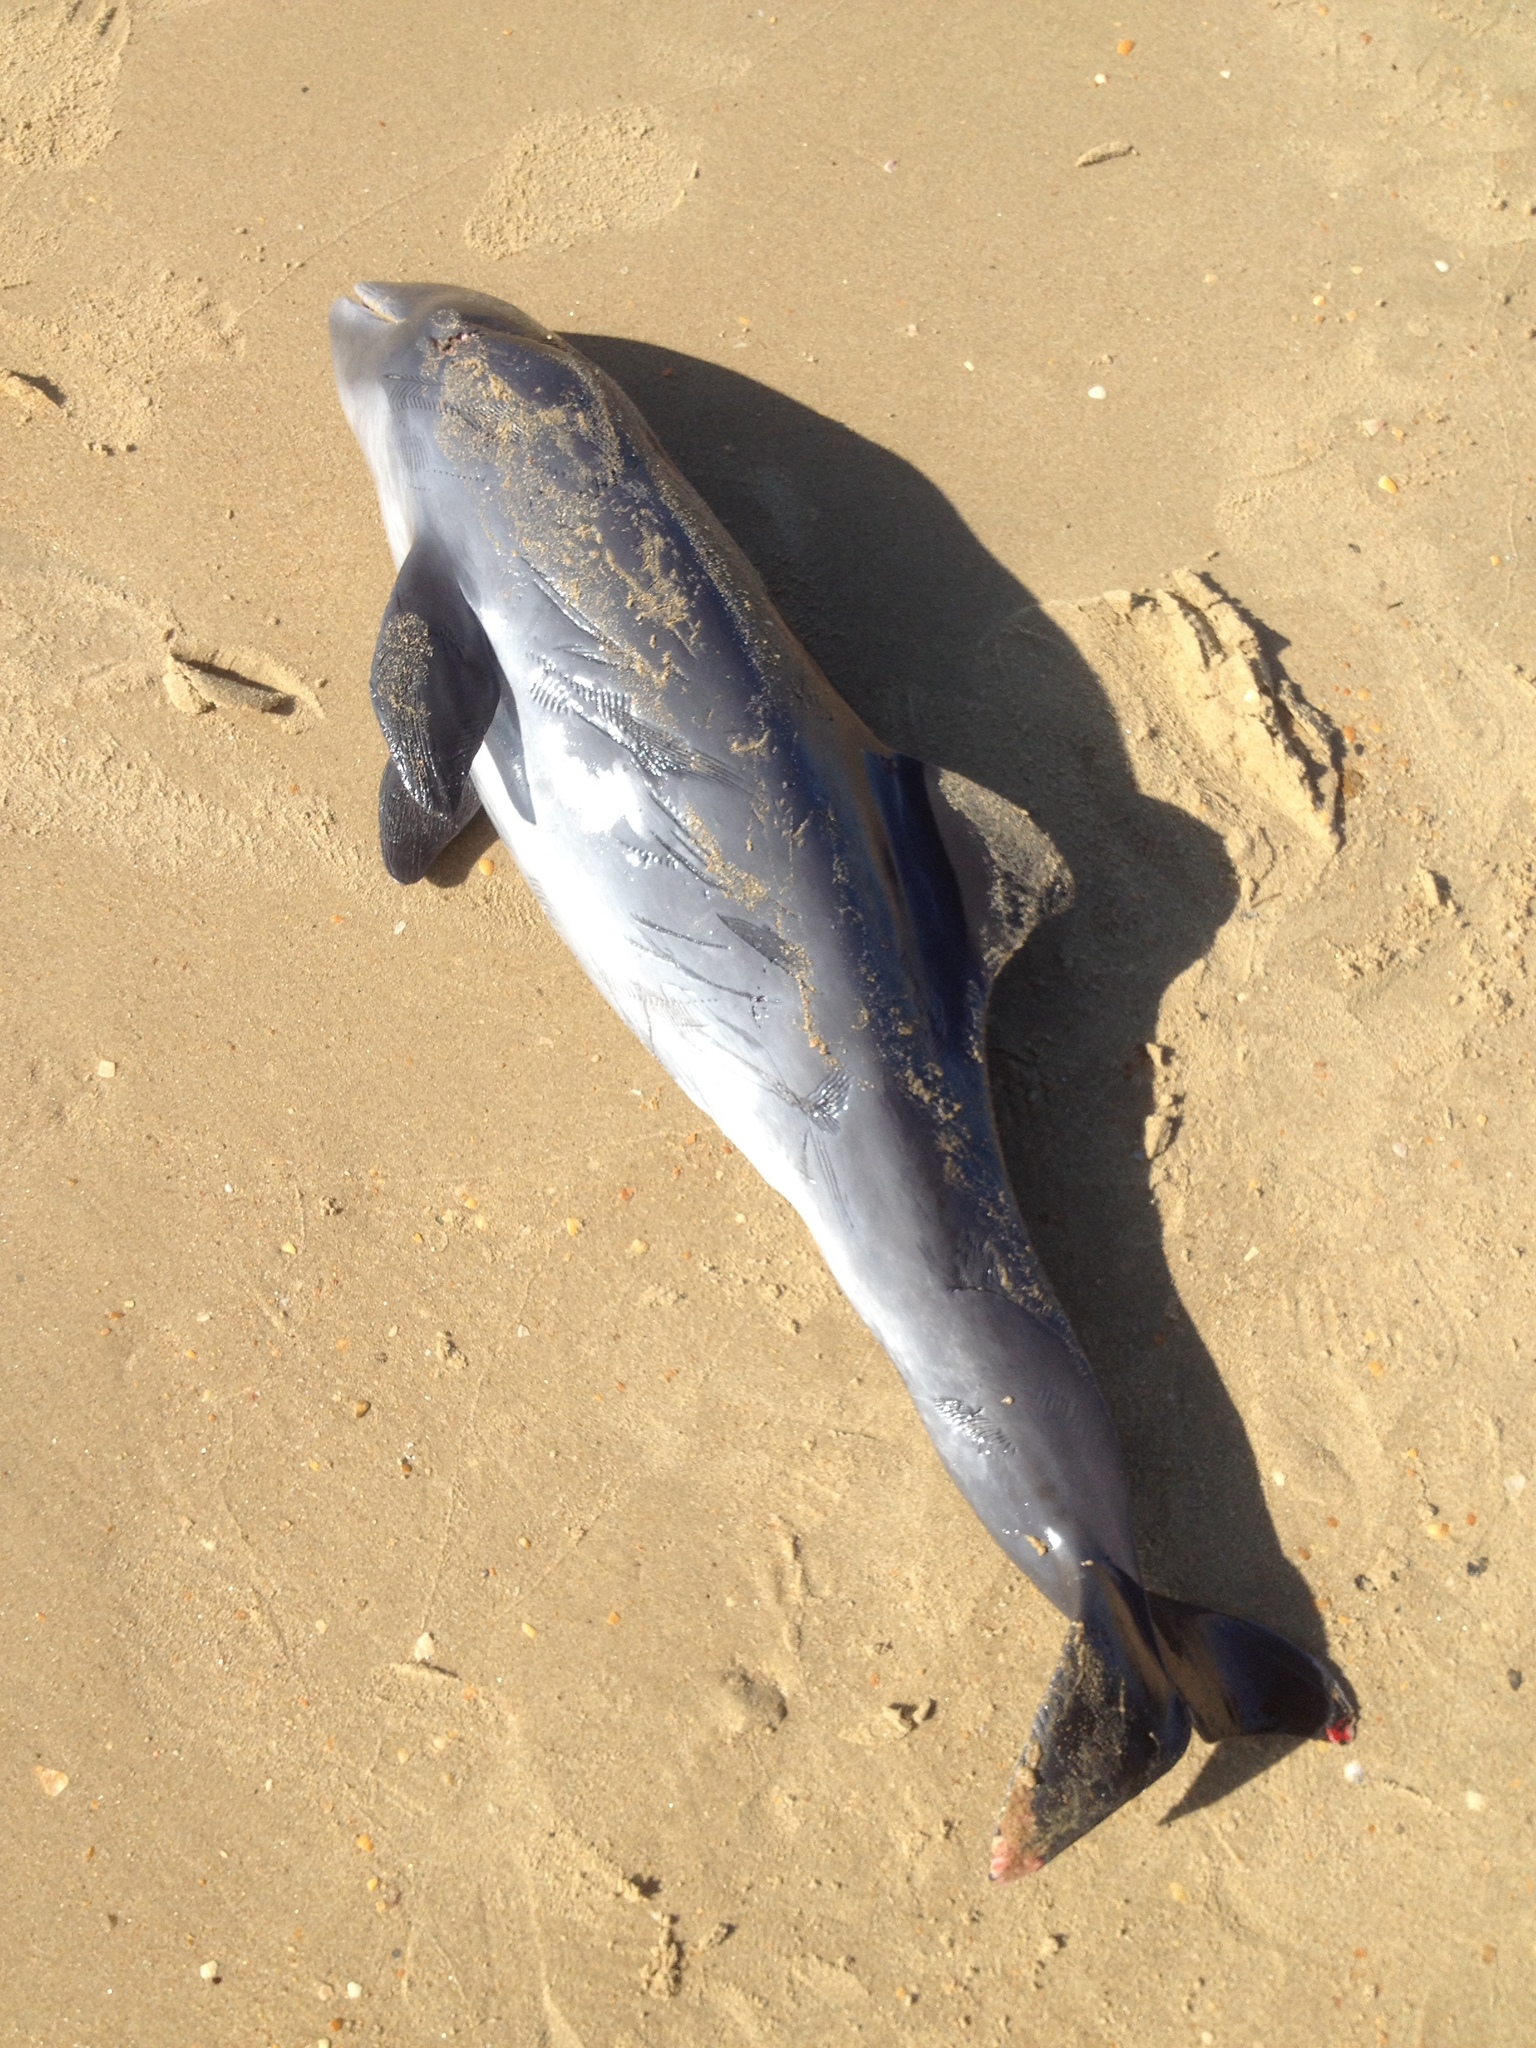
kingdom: Animalia
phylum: Chordata
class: Mammalia
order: Cetacea
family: Phocoenidae
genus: Phocoena
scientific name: Phocoena phocoena
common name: Harbor porpoise
